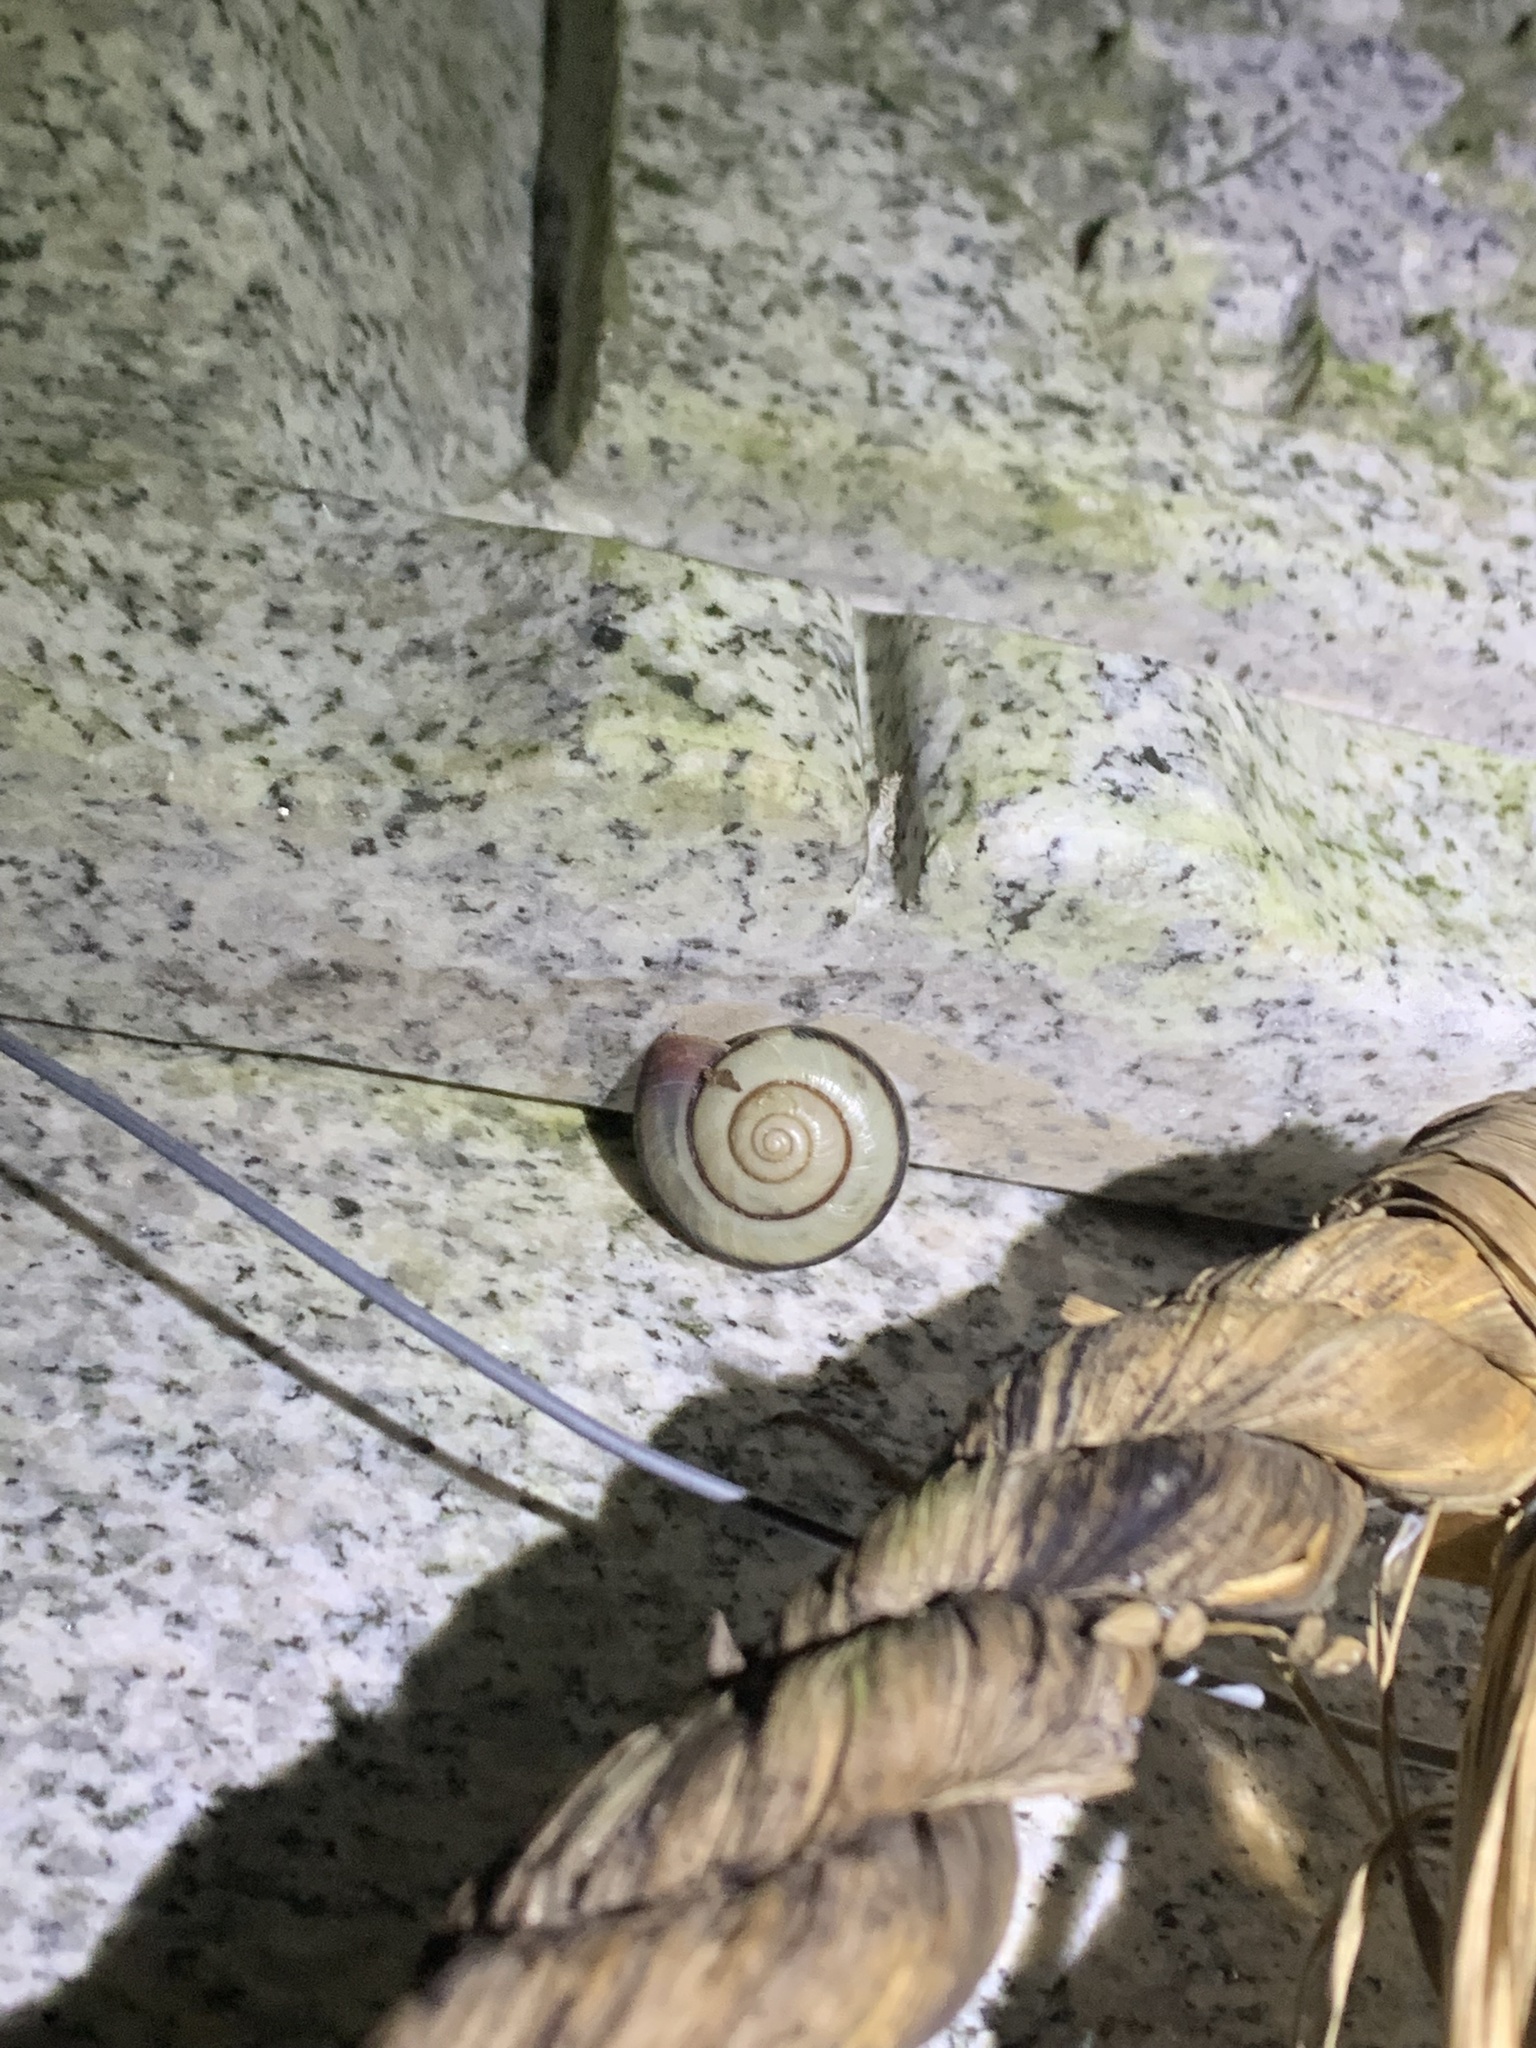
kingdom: Animalia
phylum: Mollusca
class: Gastropoda
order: Stylommatophora
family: Camaenidae
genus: Euhadra
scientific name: Euhadra amaliae
